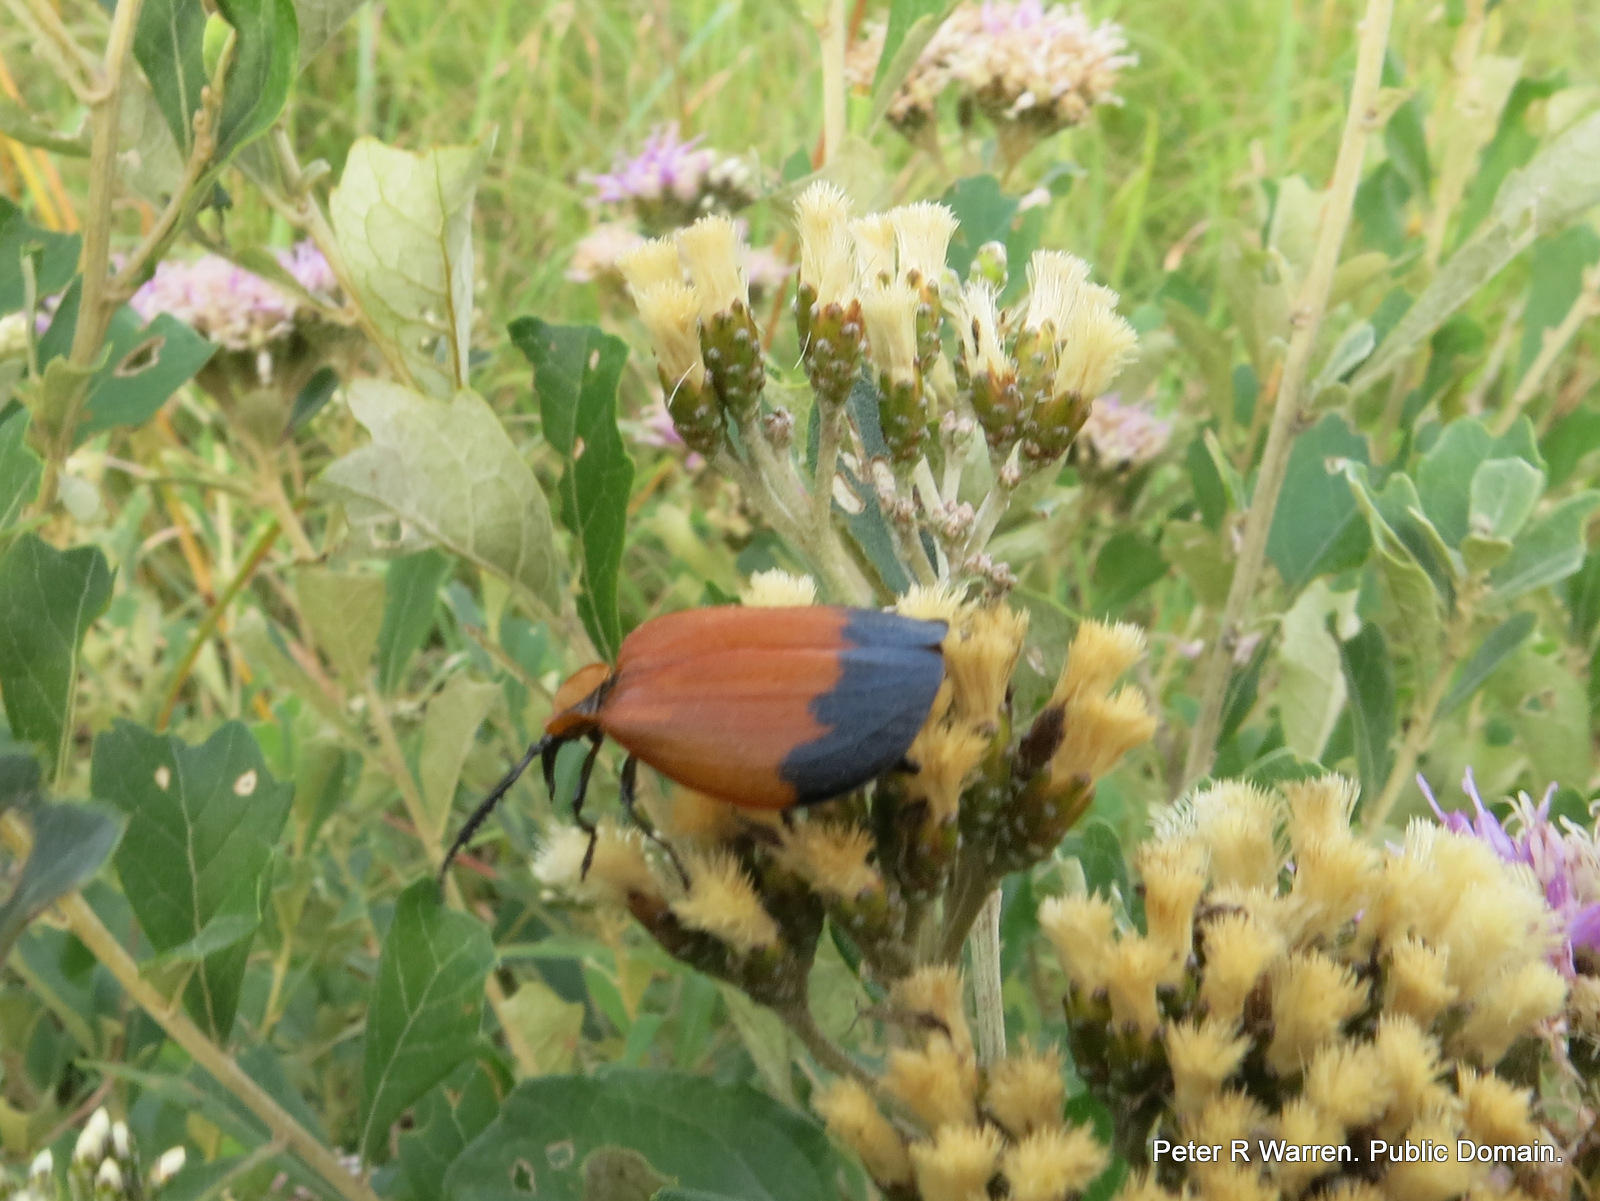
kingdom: Animalia
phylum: Arthropoda
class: Insecta
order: Coleoptera
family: Lycidae
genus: Lycus
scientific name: Lycus
